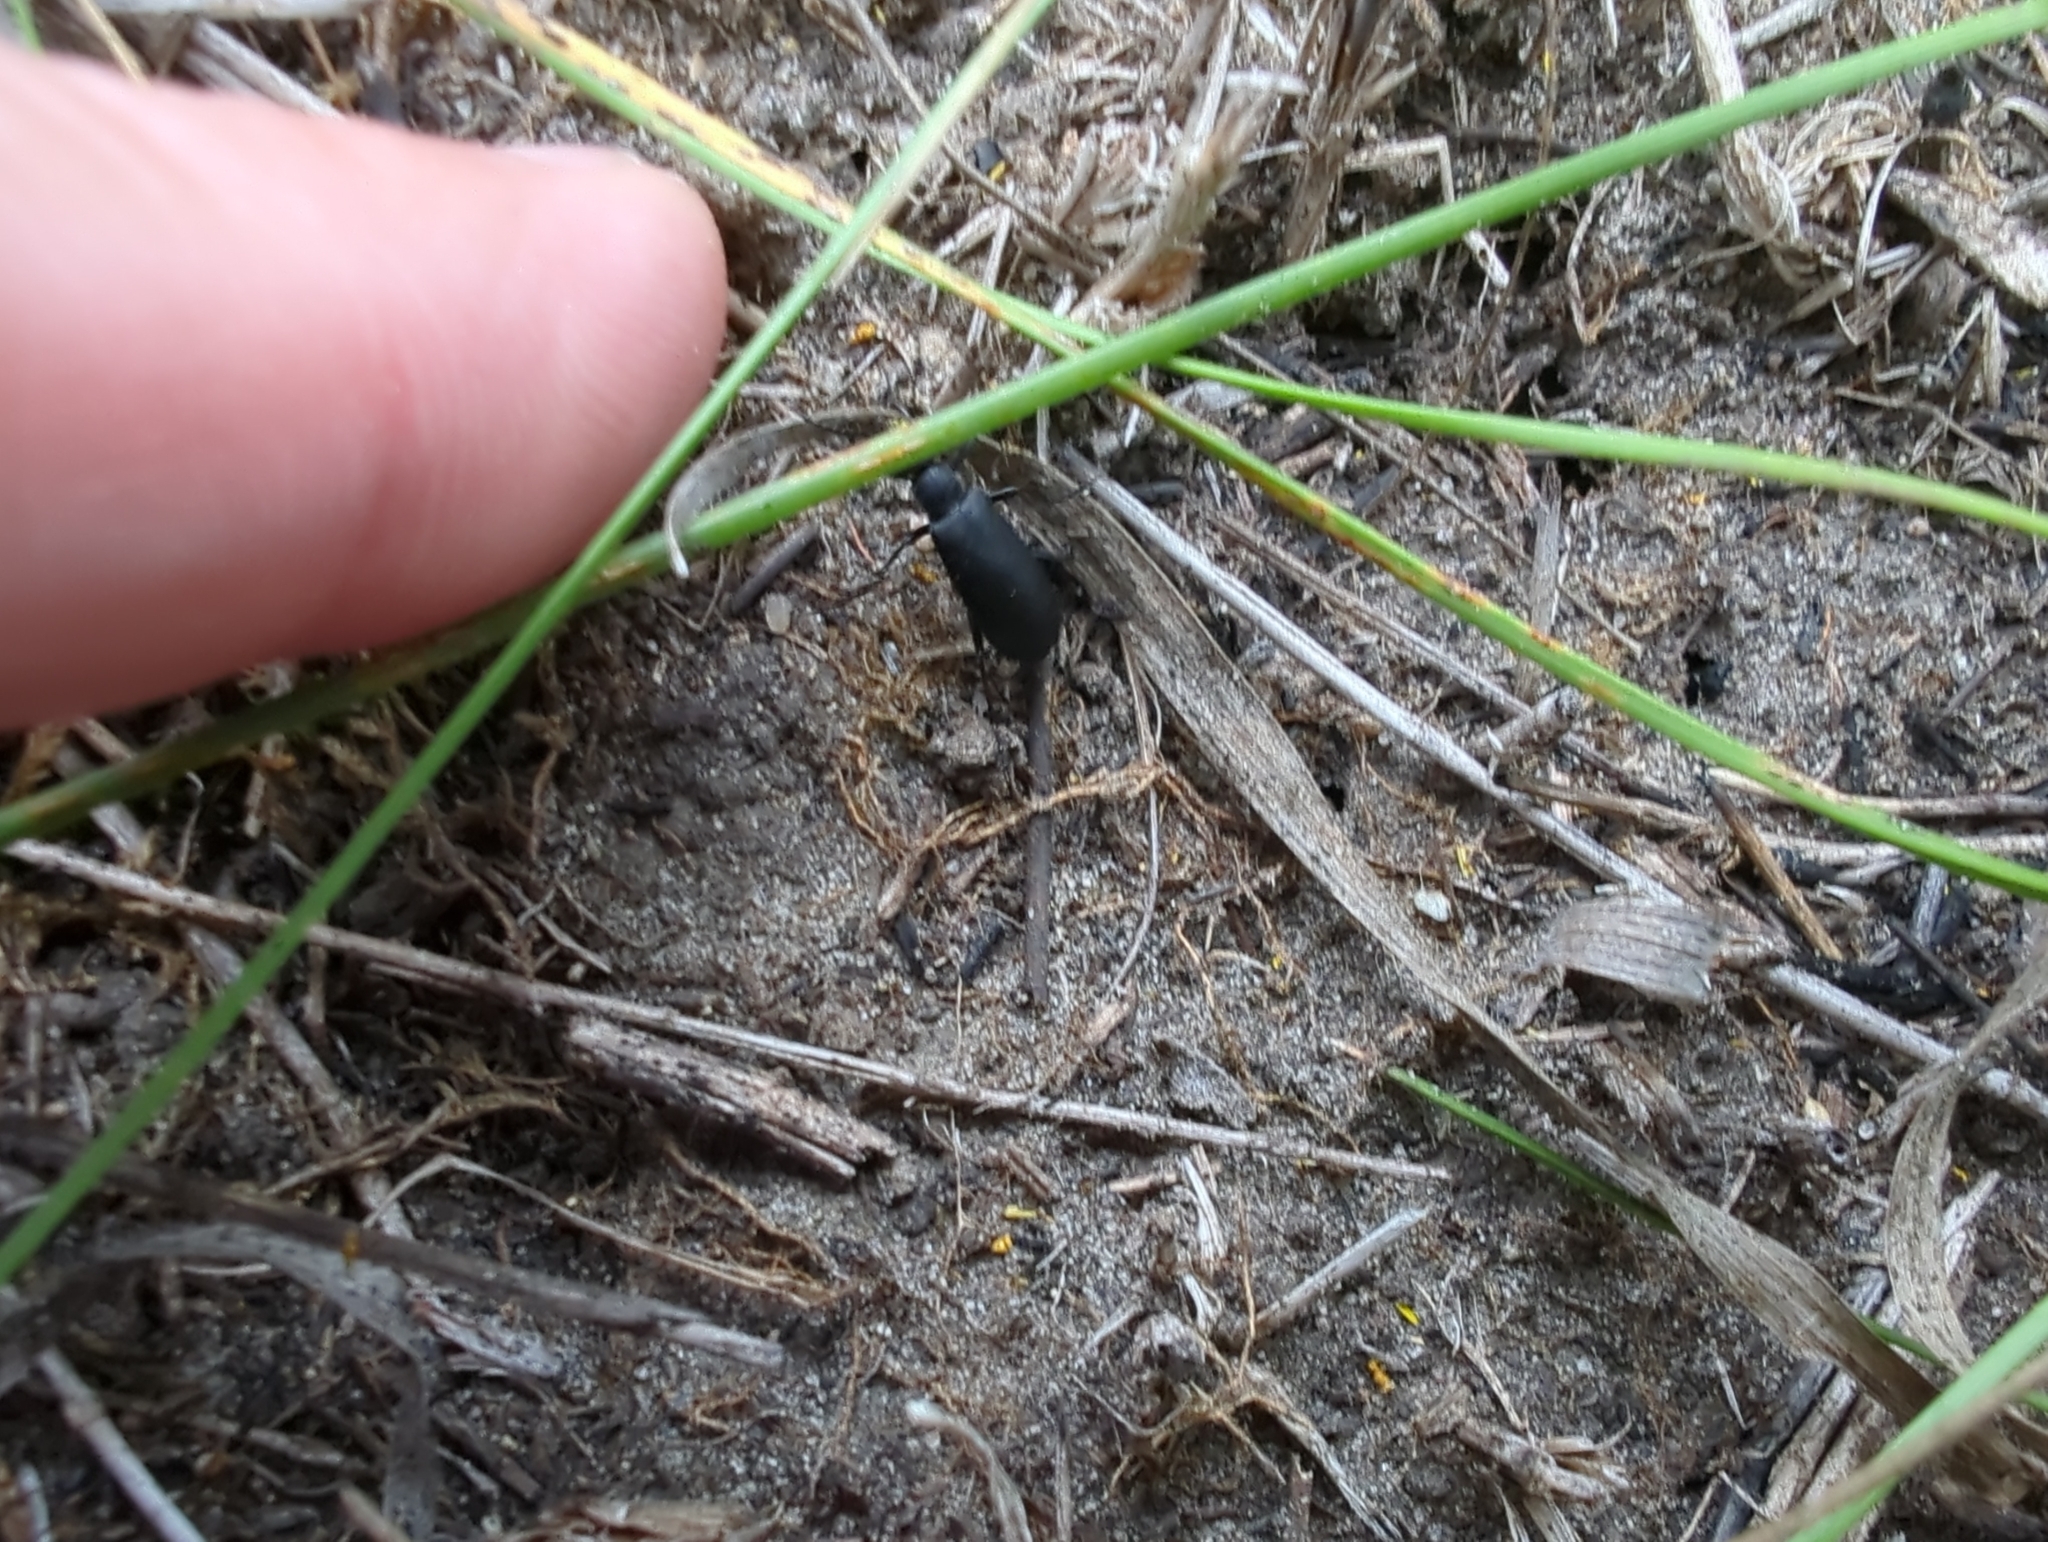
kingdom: Animalia
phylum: Arthropoda
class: Insecta
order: Coleoptera
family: Meloidae
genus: Epicauta
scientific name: Epicauta pensylvanica
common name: Black blister beetle
